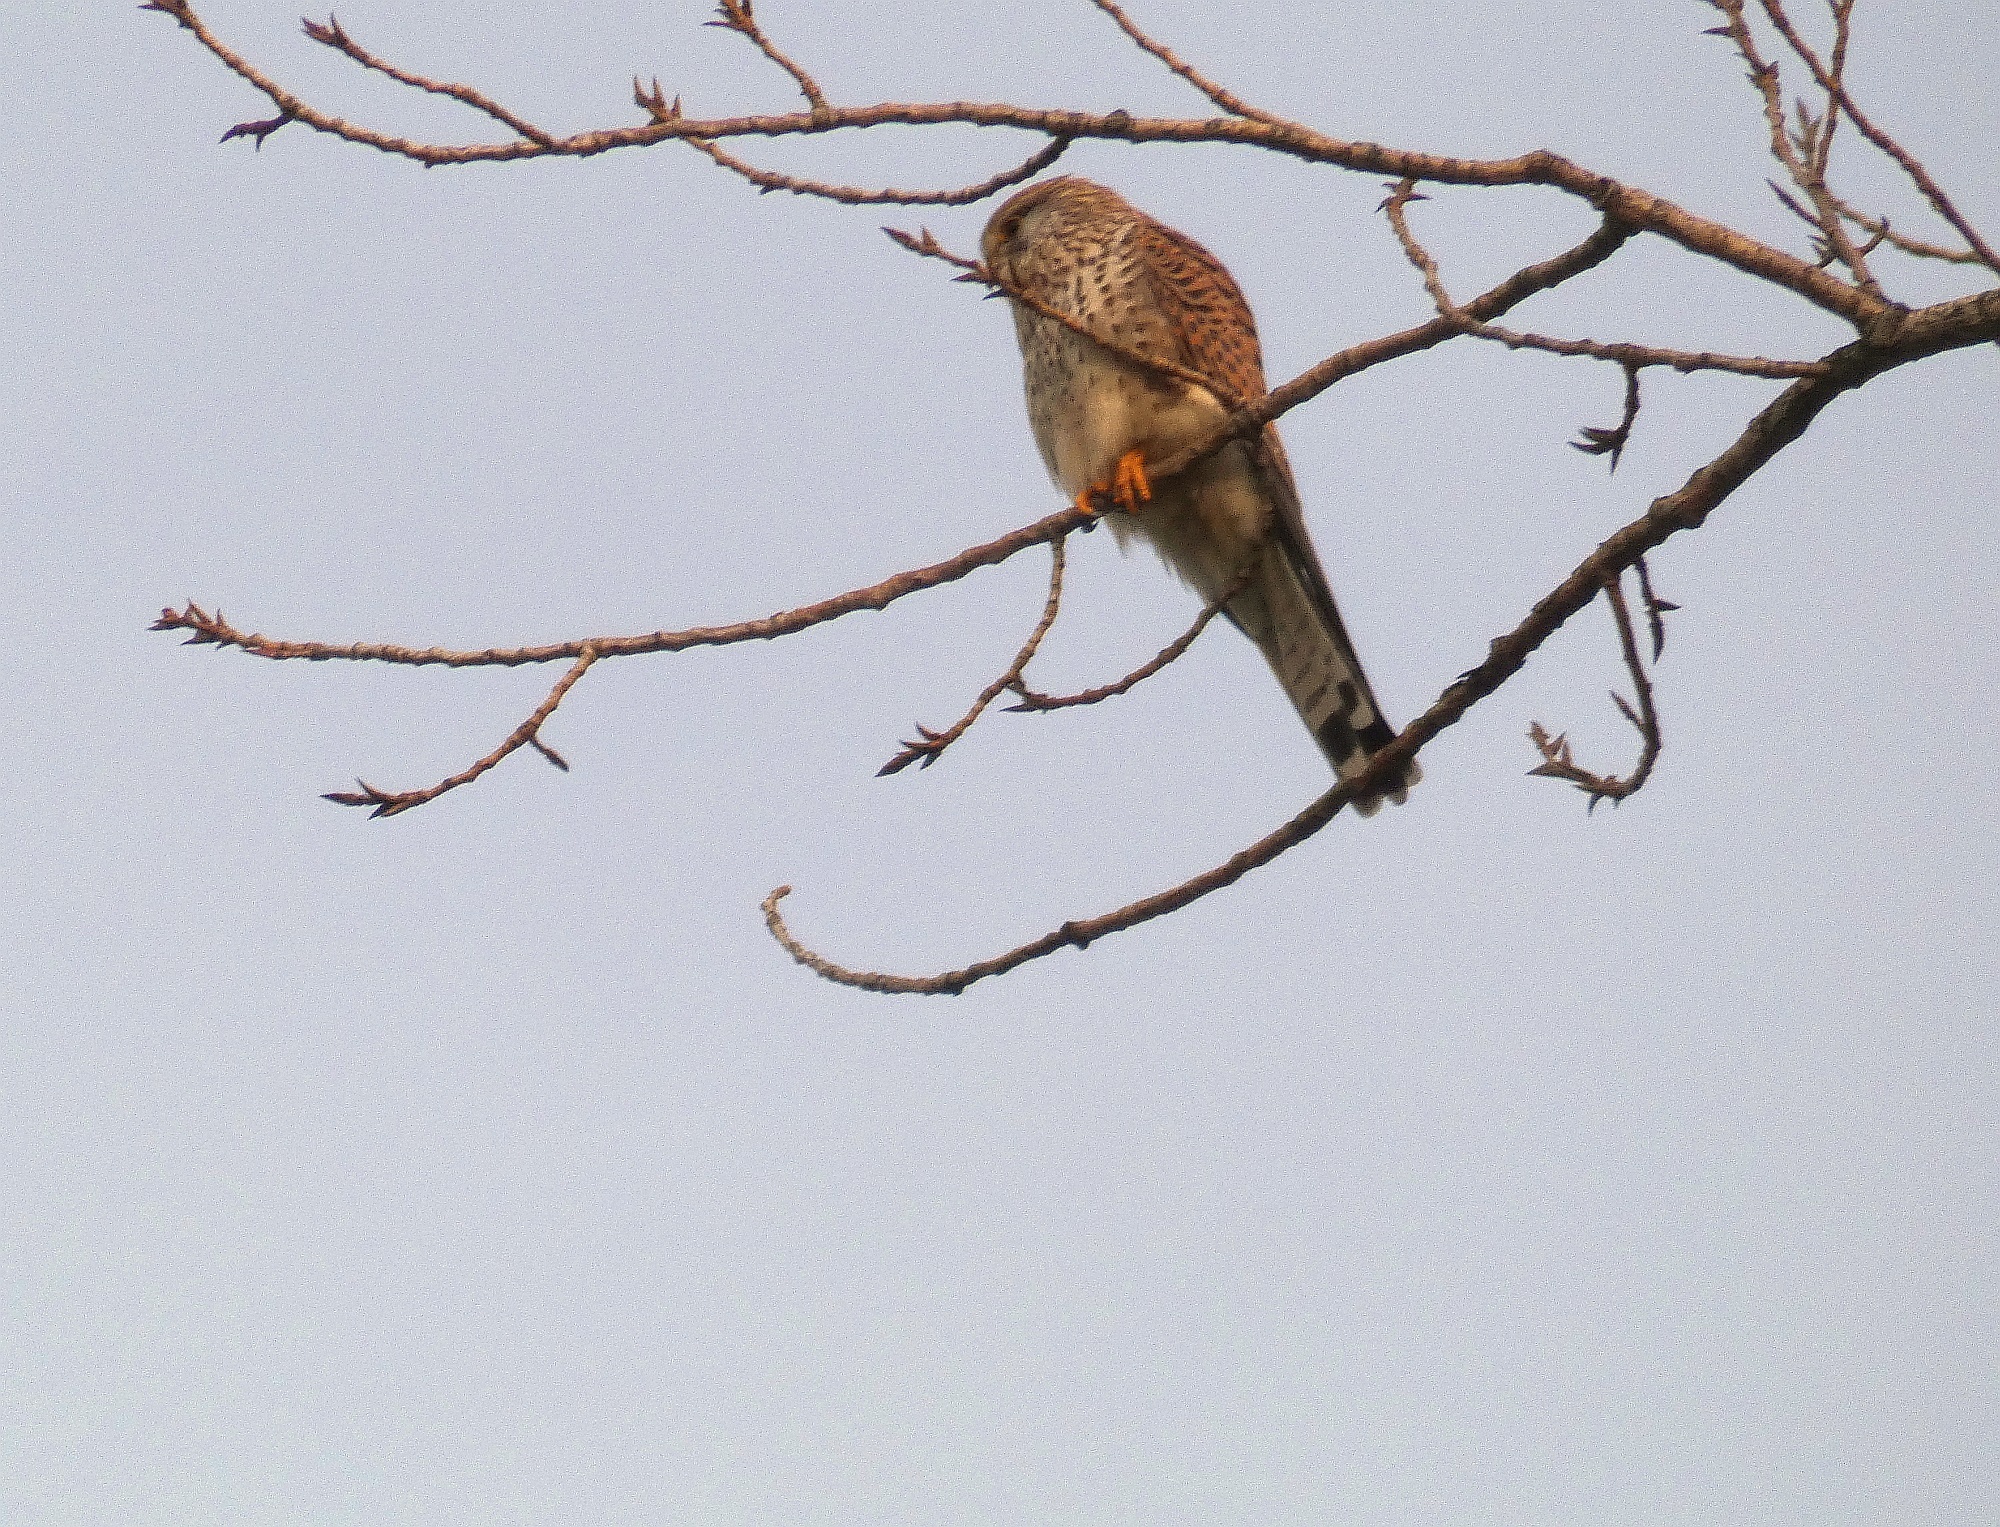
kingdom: Animalia
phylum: Chordata
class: Aves
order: Falconiformes
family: Falconidae
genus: Falco
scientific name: Falco tinnunculus
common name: Common kestrel
